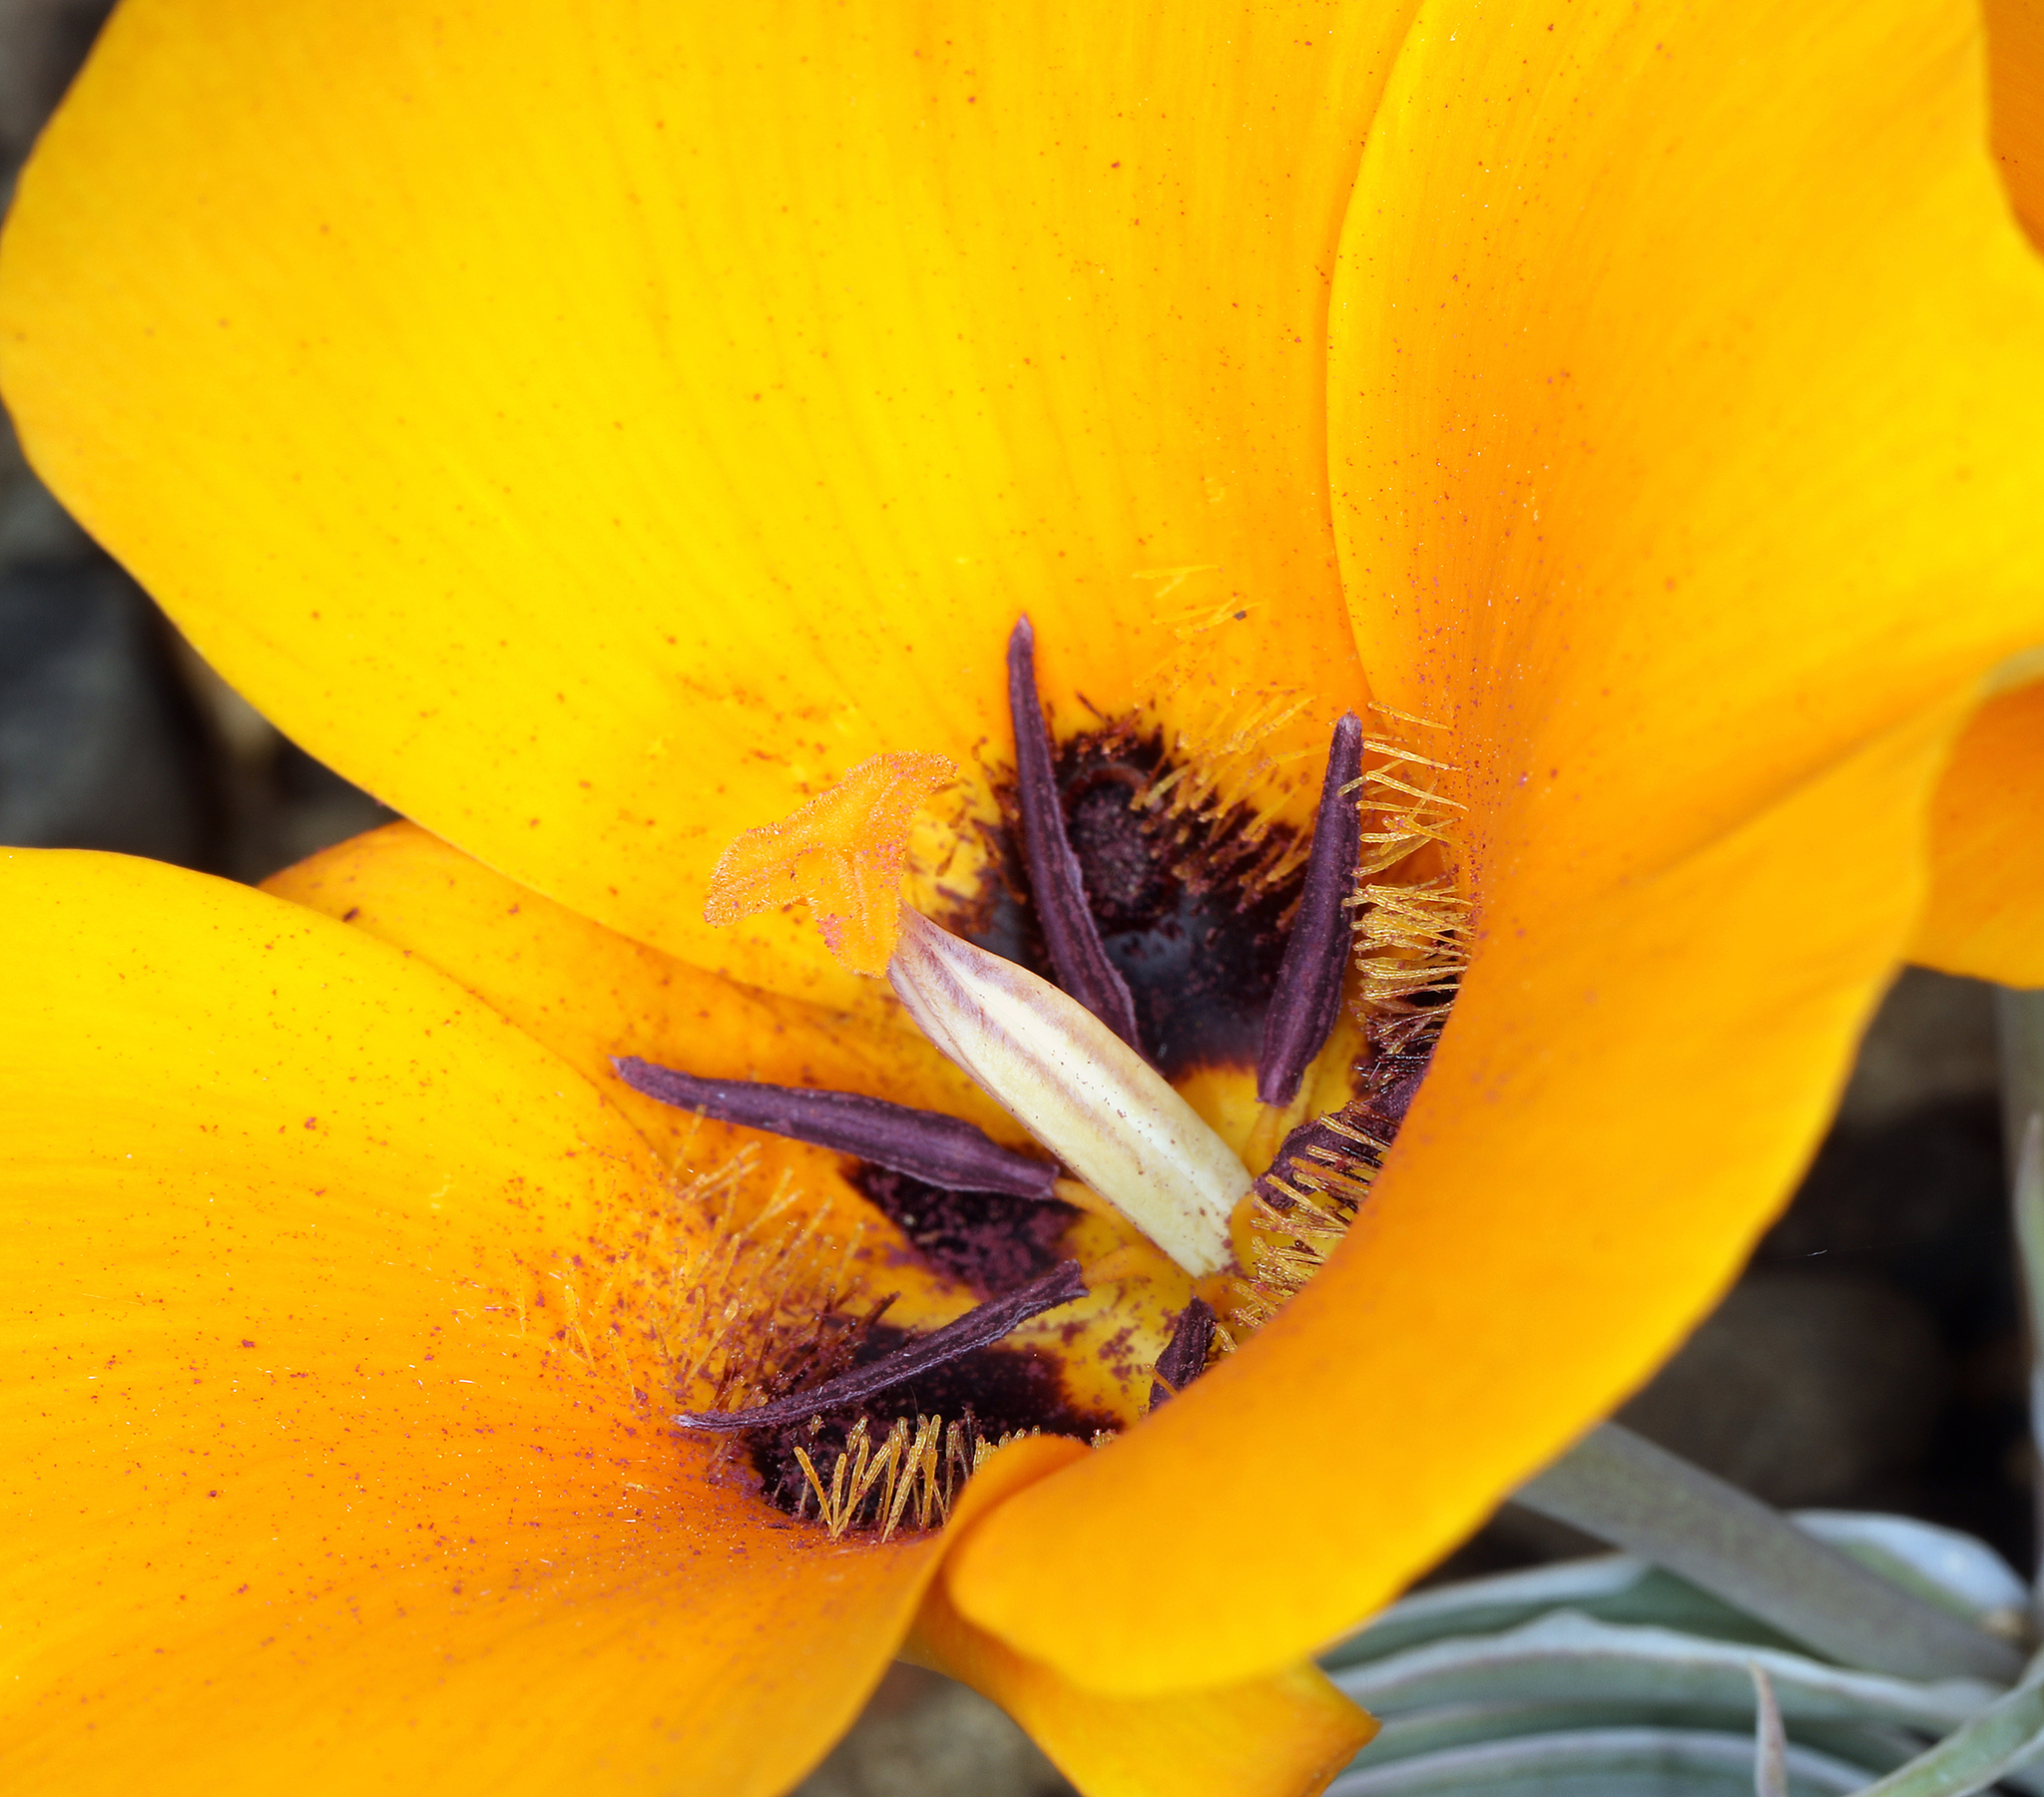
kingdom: Plantae
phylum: Tracheophyta
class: Liliopsida
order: Liliales
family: Liliaceae
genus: Calochortus
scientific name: Calochortus kennedyi
